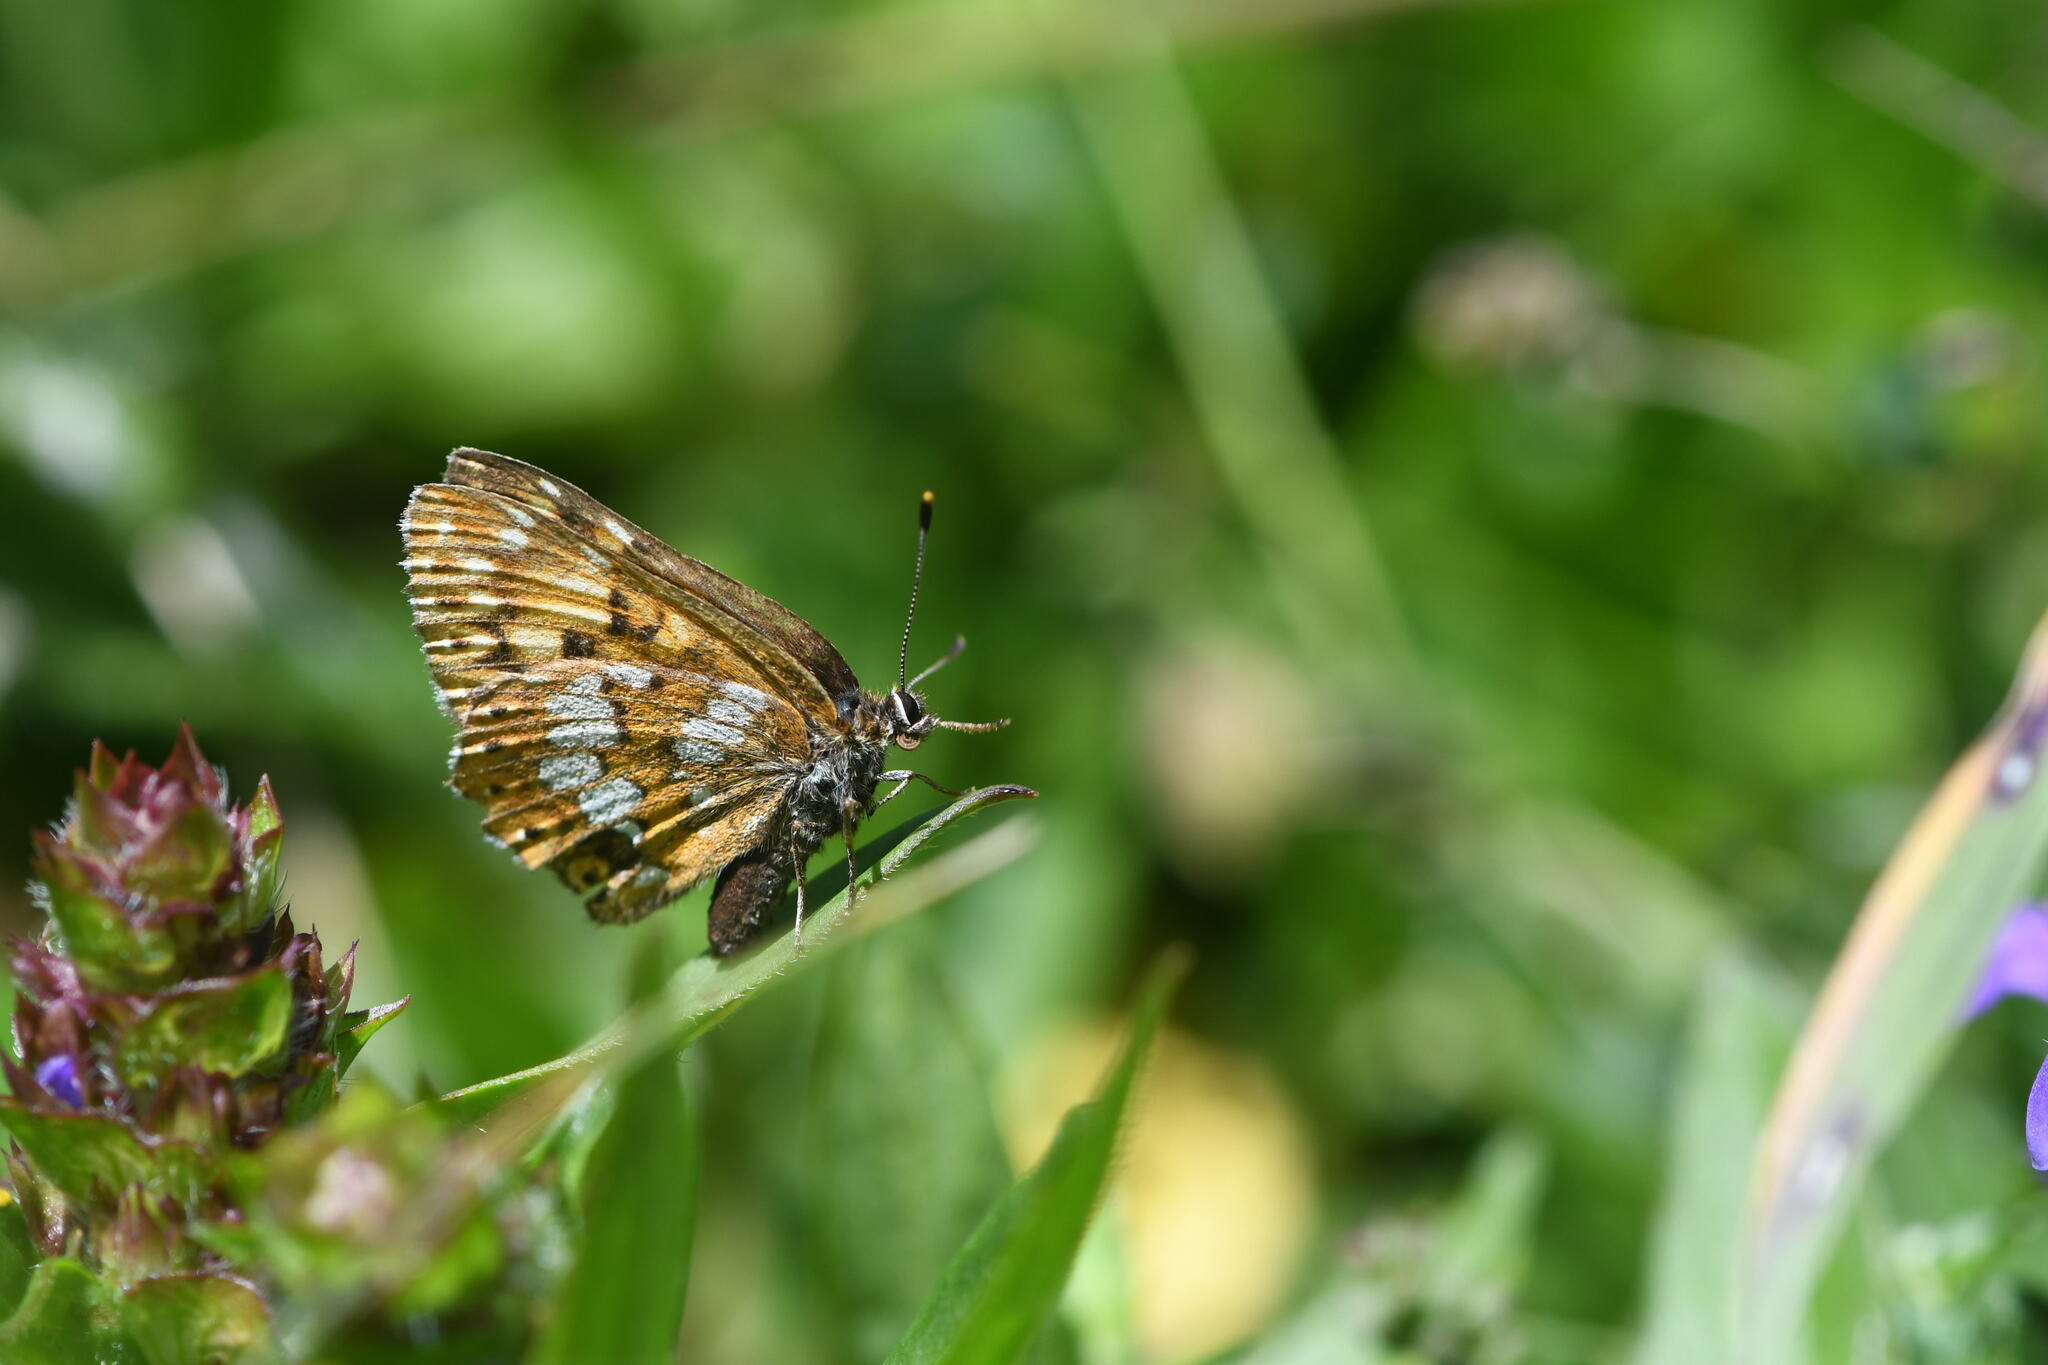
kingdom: Animalia
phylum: Arthropoda
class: Insecta
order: Lepidoptera
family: Riodinidae
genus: Hamearis
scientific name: Hamearis lucina
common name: Duke of burgundy fritillary
